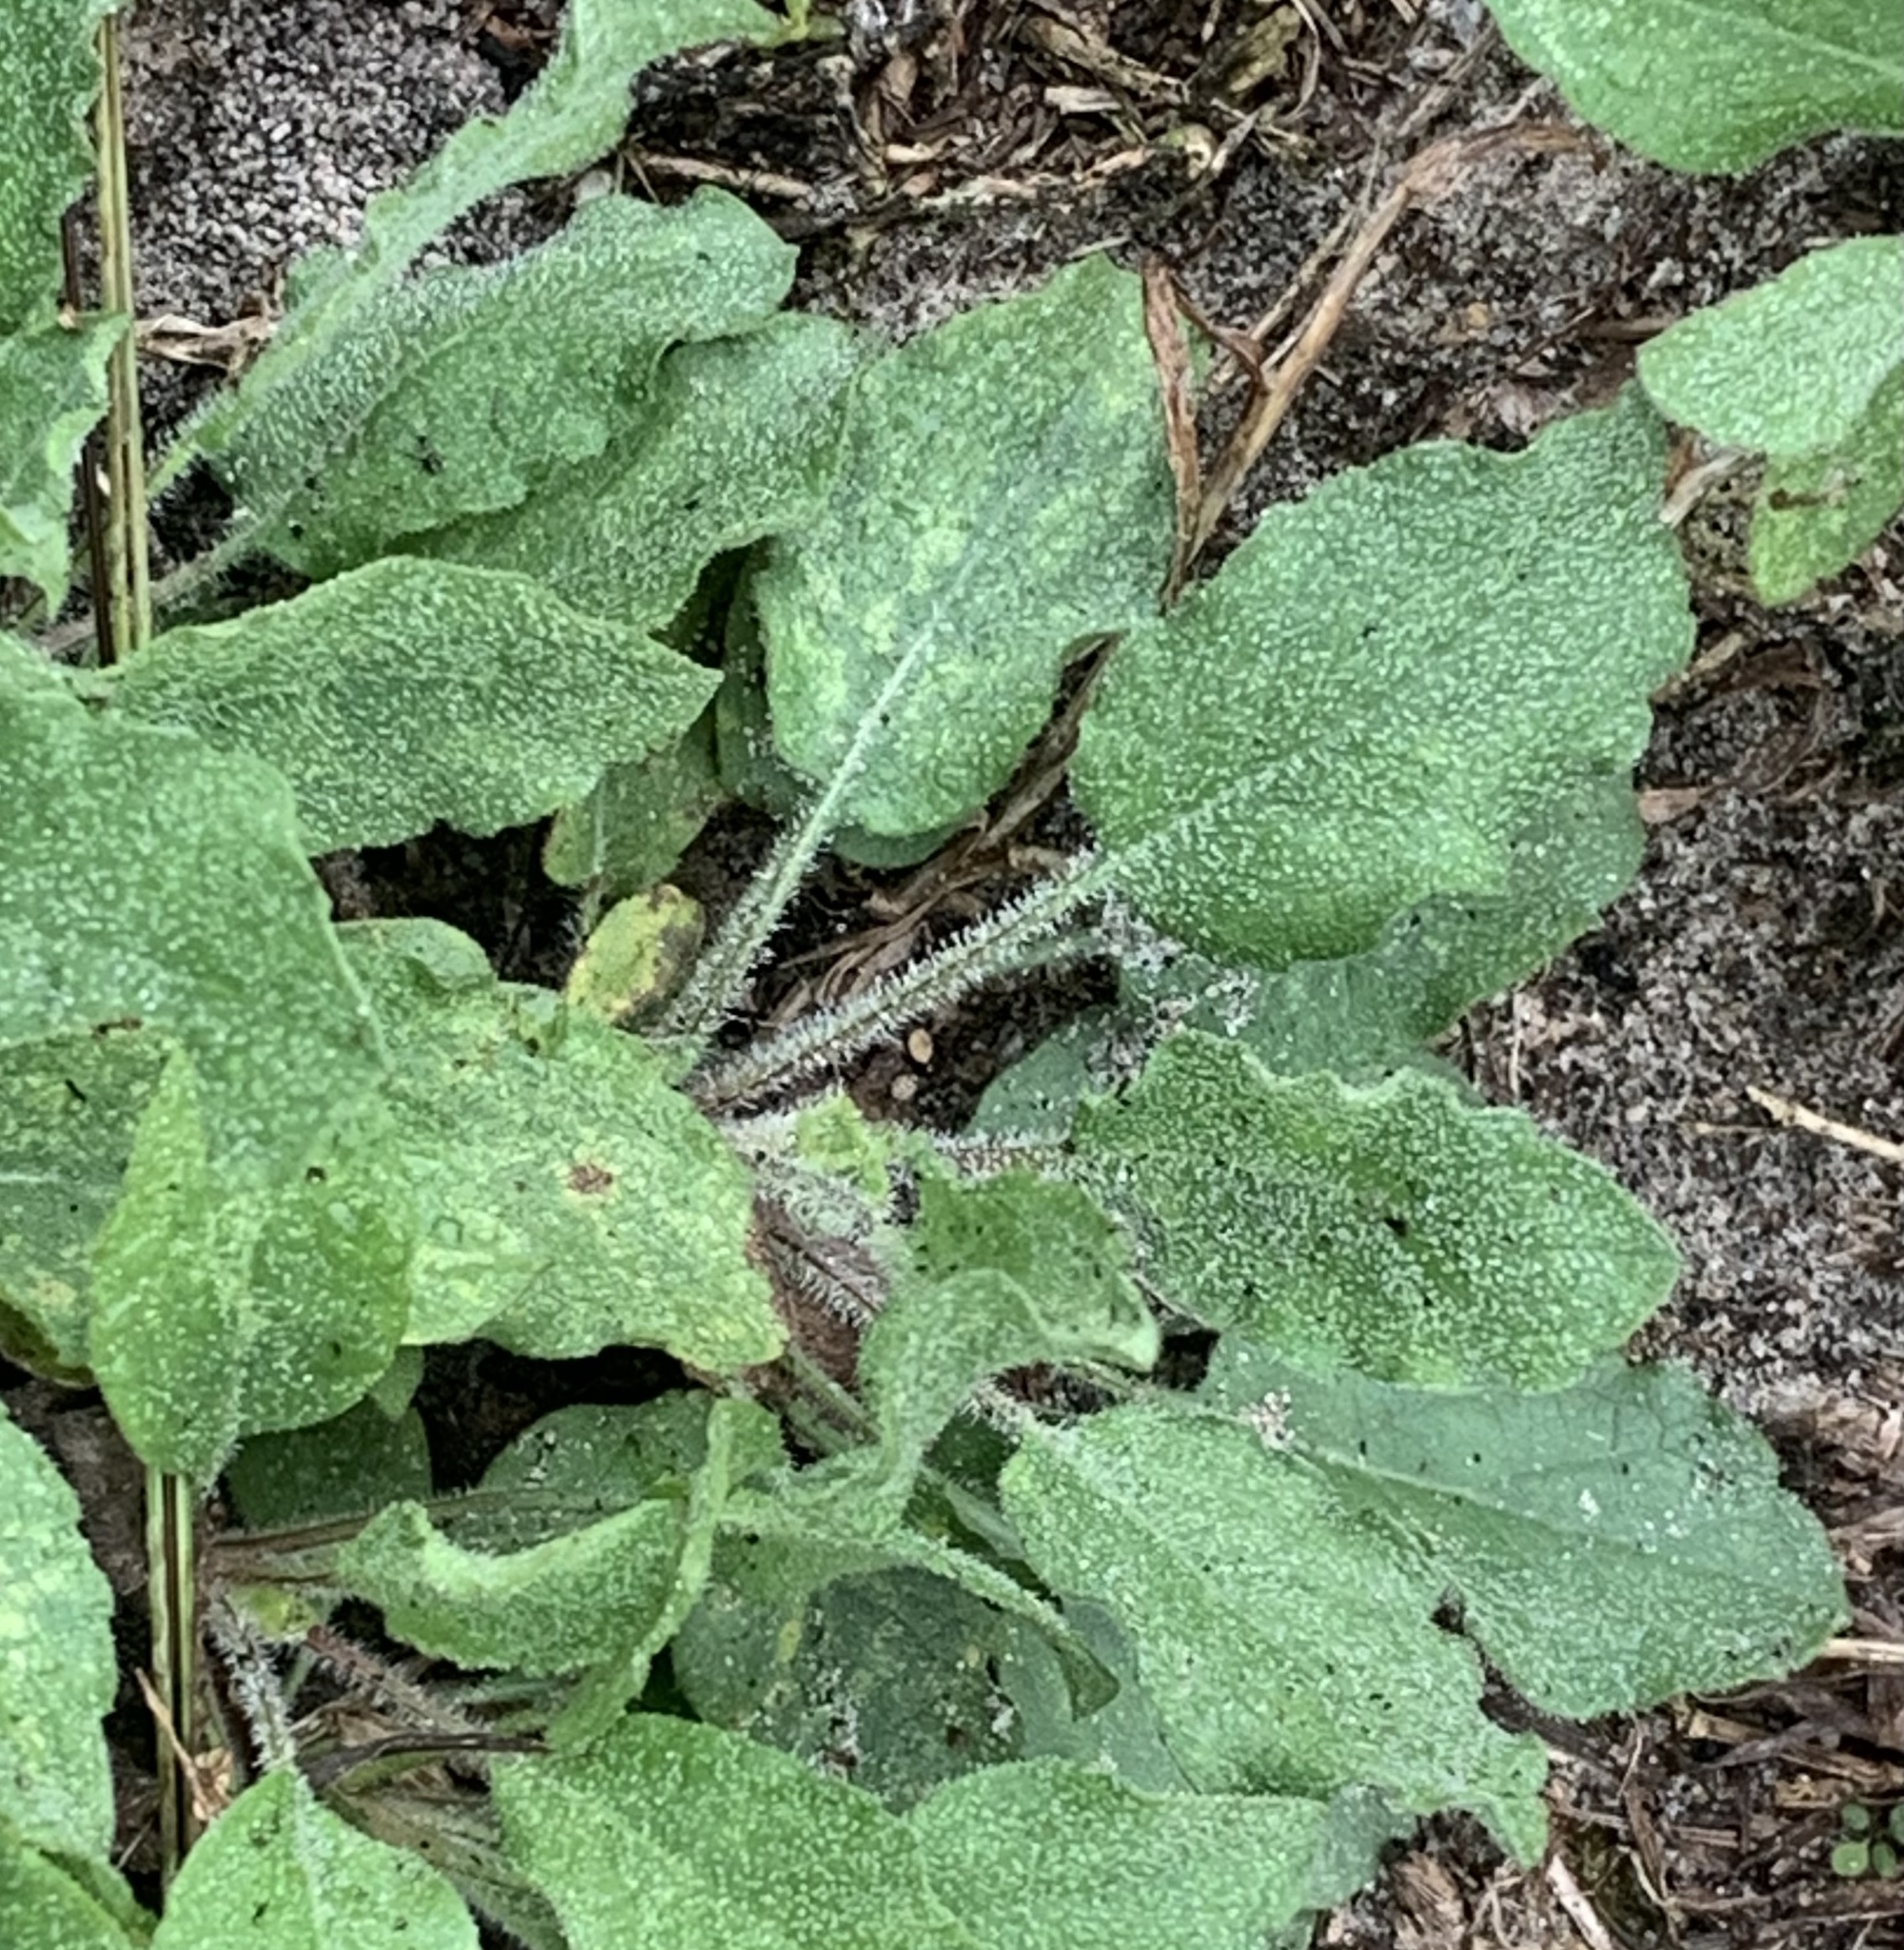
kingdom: Plantae
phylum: Tracheophyta
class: Magnoliopsida
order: Asterales
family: Asteraceae
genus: Heterotheca
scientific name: Heterotheca subaxillaris
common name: Camphorweed
